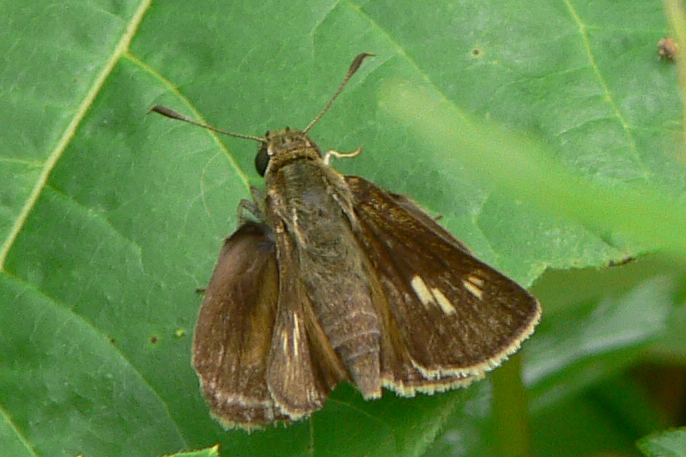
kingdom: Animalia
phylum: Arthropoda
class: Insecta
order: Lepidoptera
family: Hesperiidae
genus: Polites
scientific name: Polites egeremet
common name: Northern broken-dash
